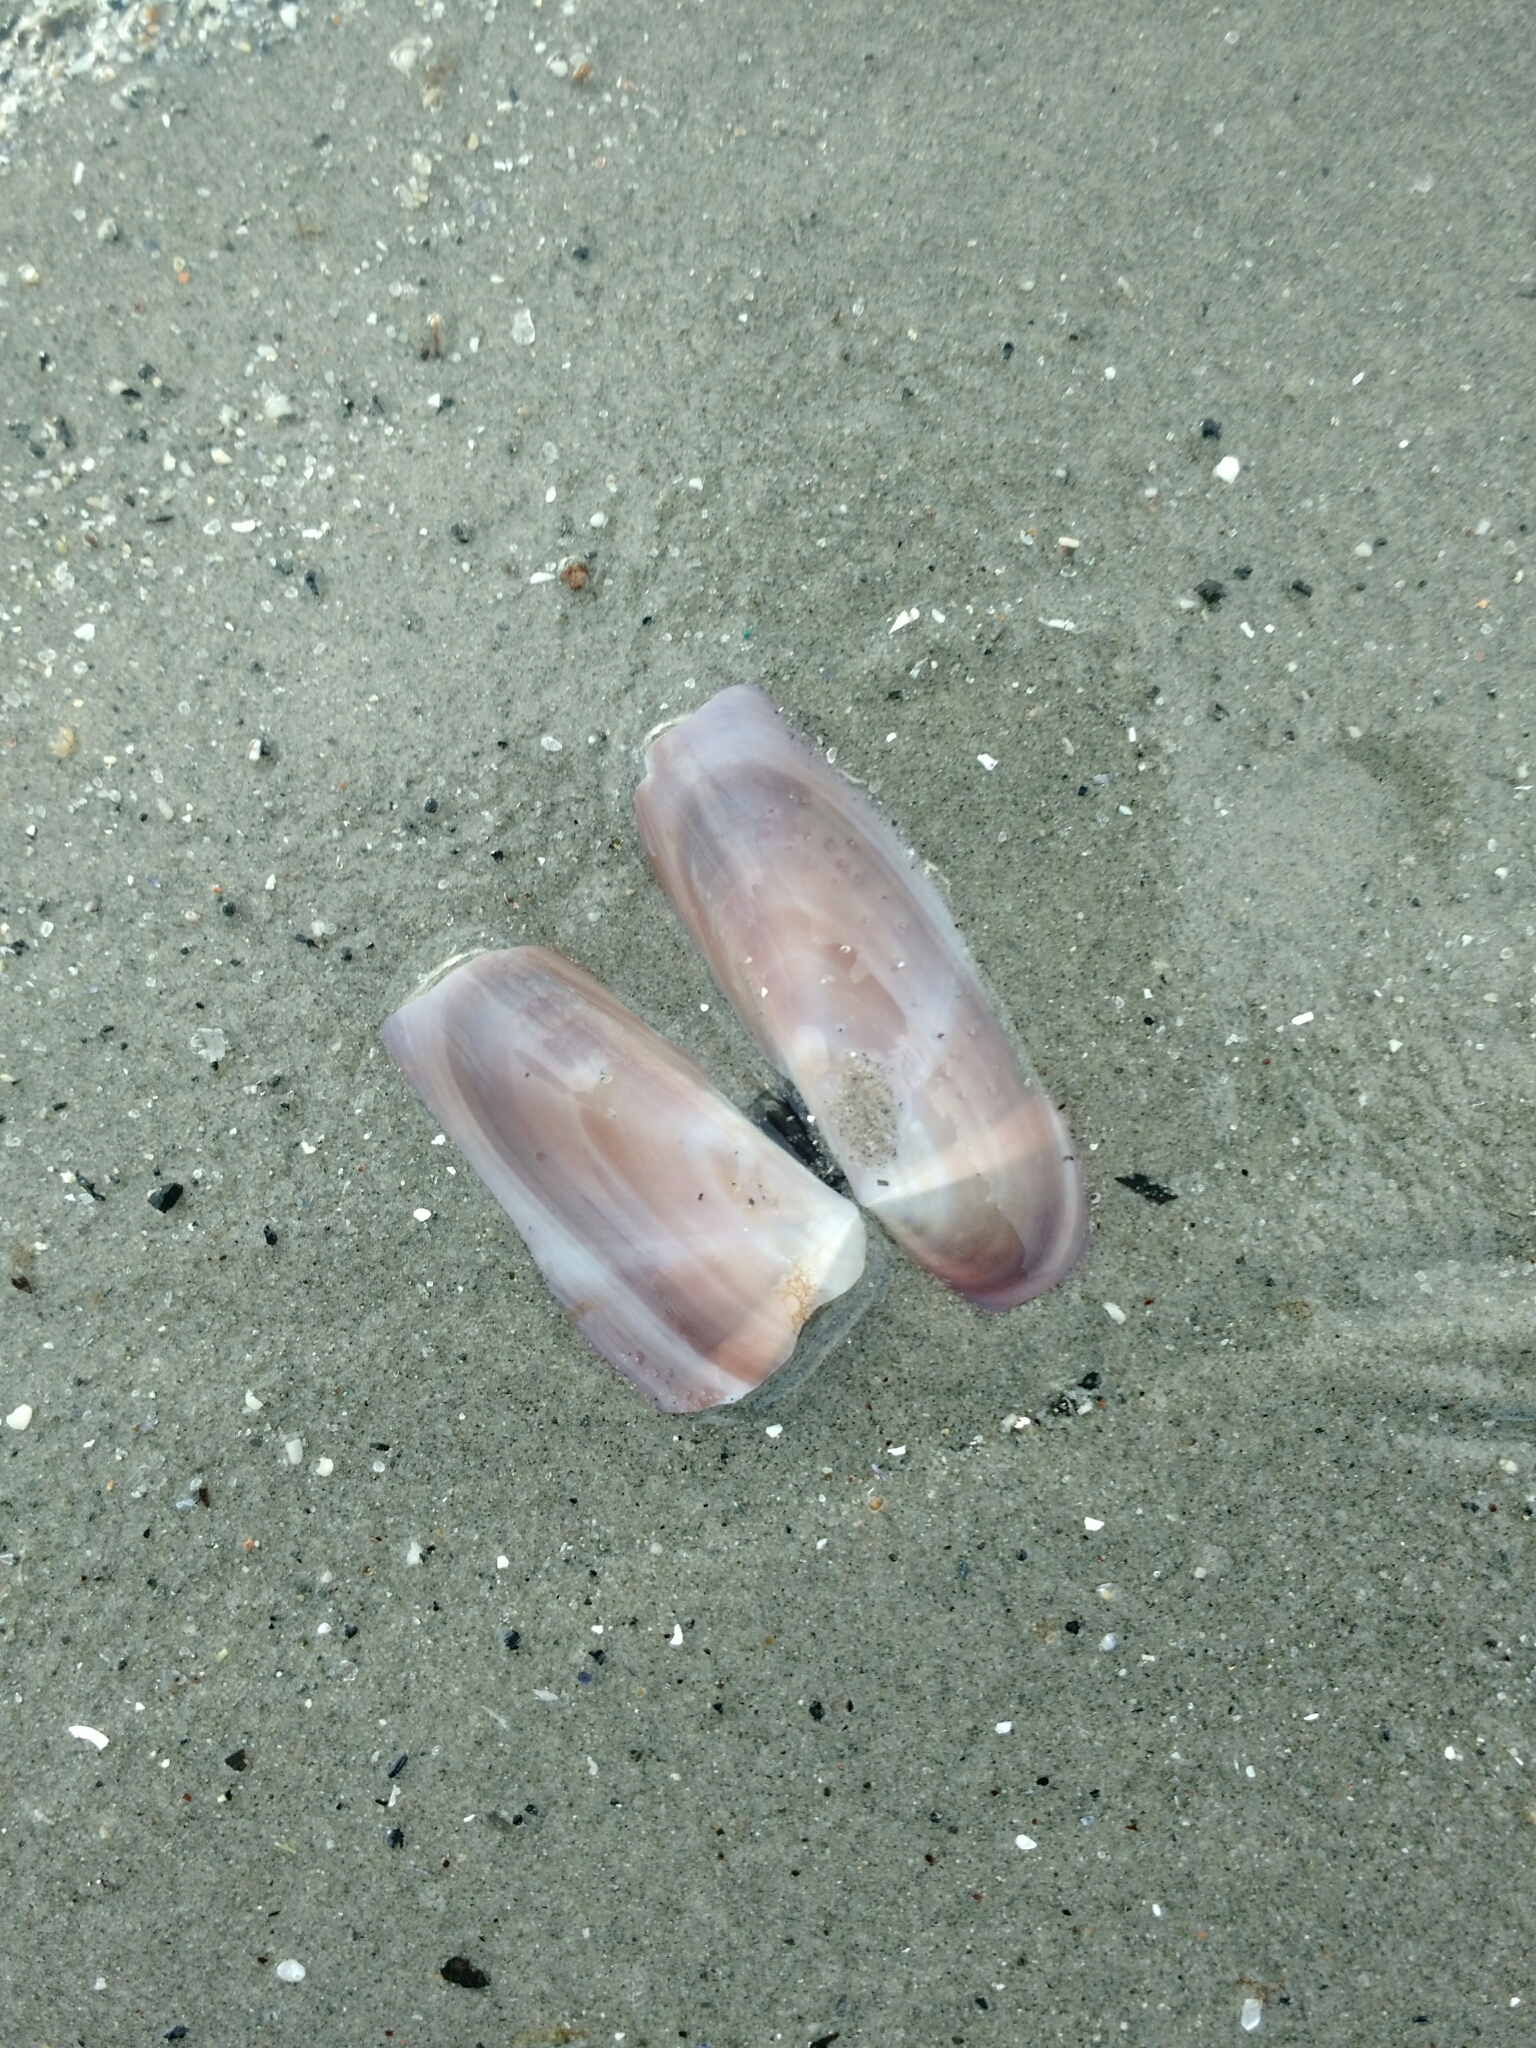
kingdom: Animalia
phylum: Mollusca
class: Bivalvia
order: Adapedonta
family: Pharidae
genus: Siliqua
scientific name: Siliqua costata
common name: Atlantic razor
